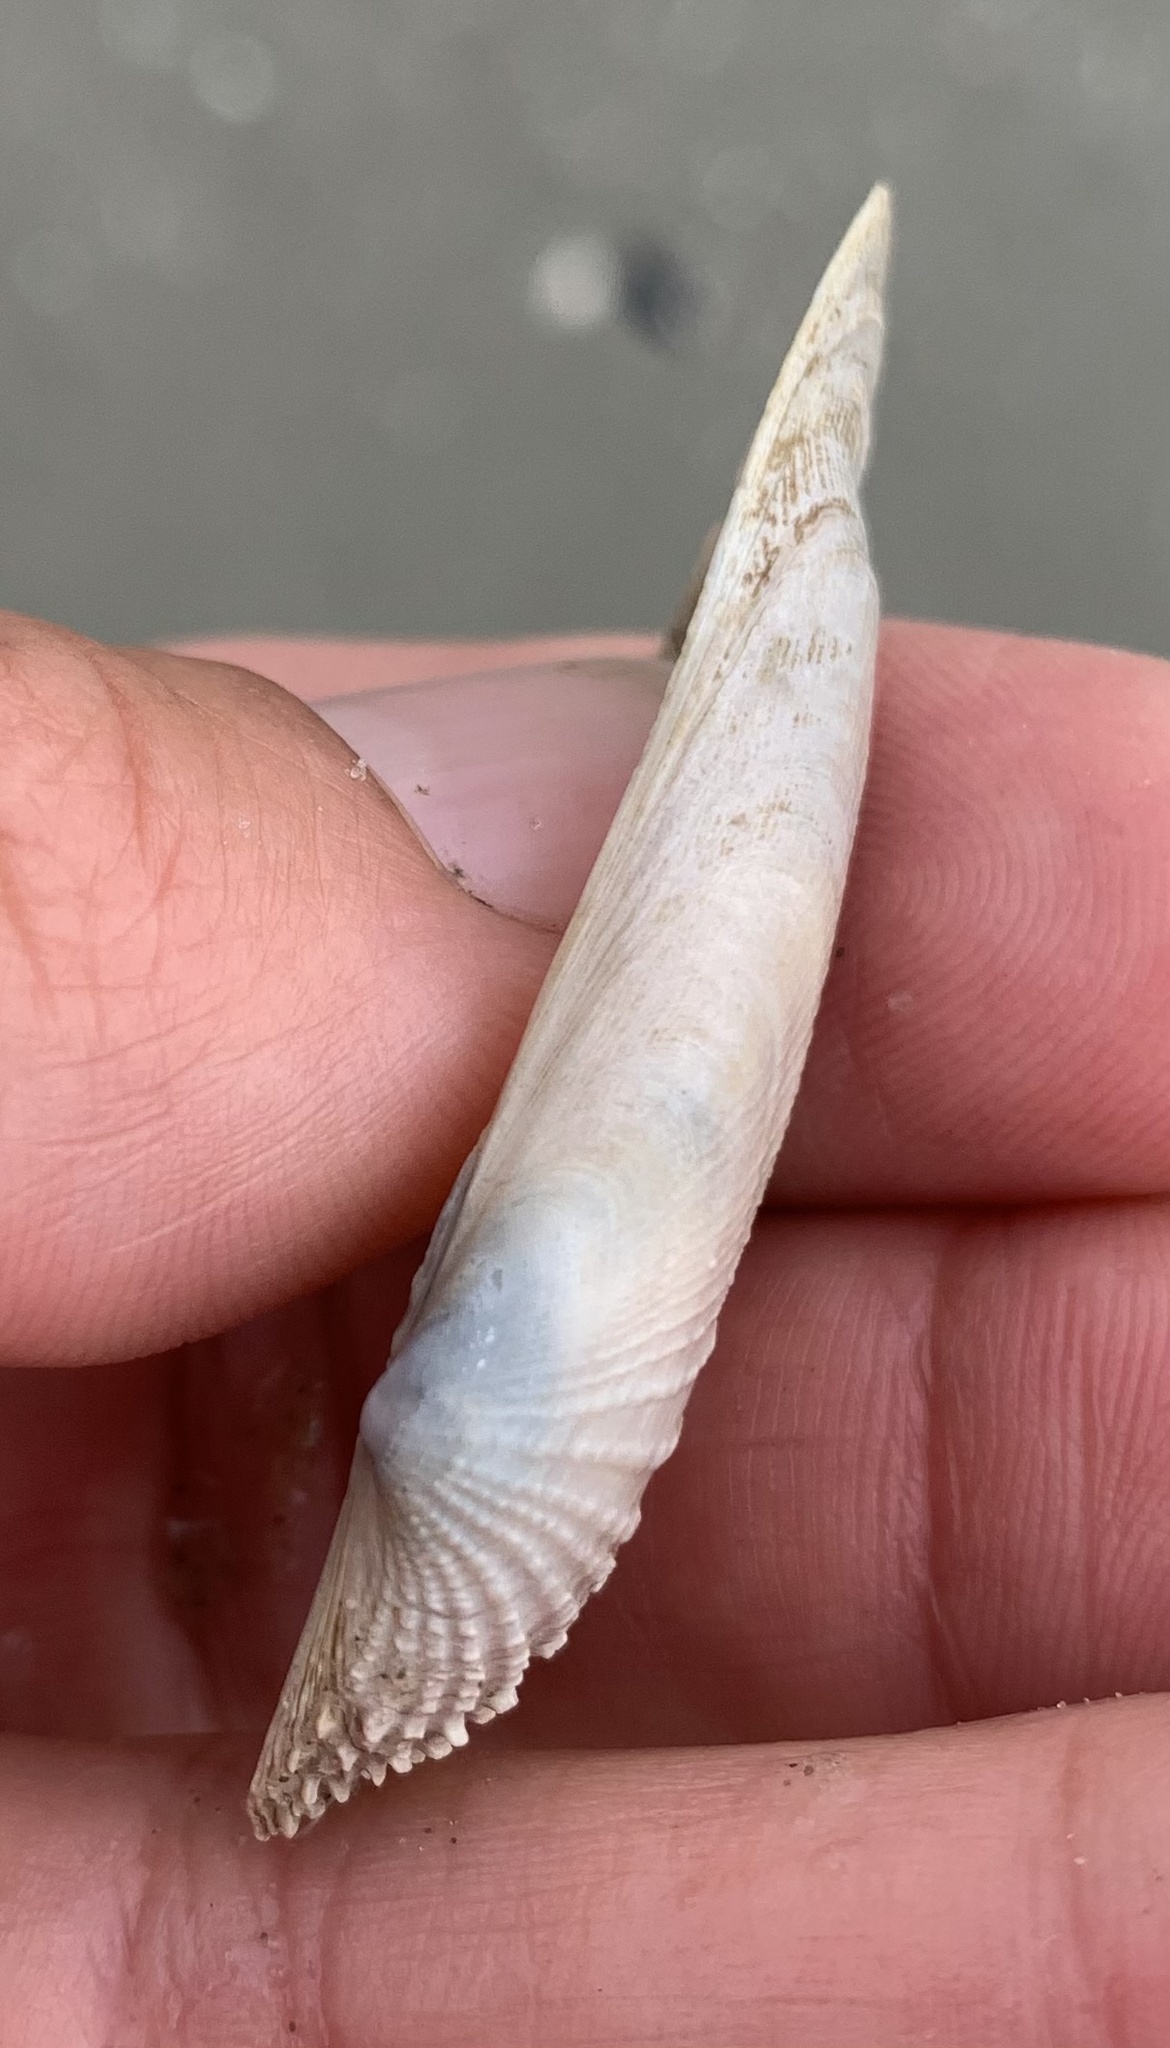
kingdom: Animalia
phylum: Mollusca
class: Bivalvia
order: Venerida
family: Veneridae
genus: Petricolaria
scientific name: Petricolaria pholadiformis
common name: American piddock
